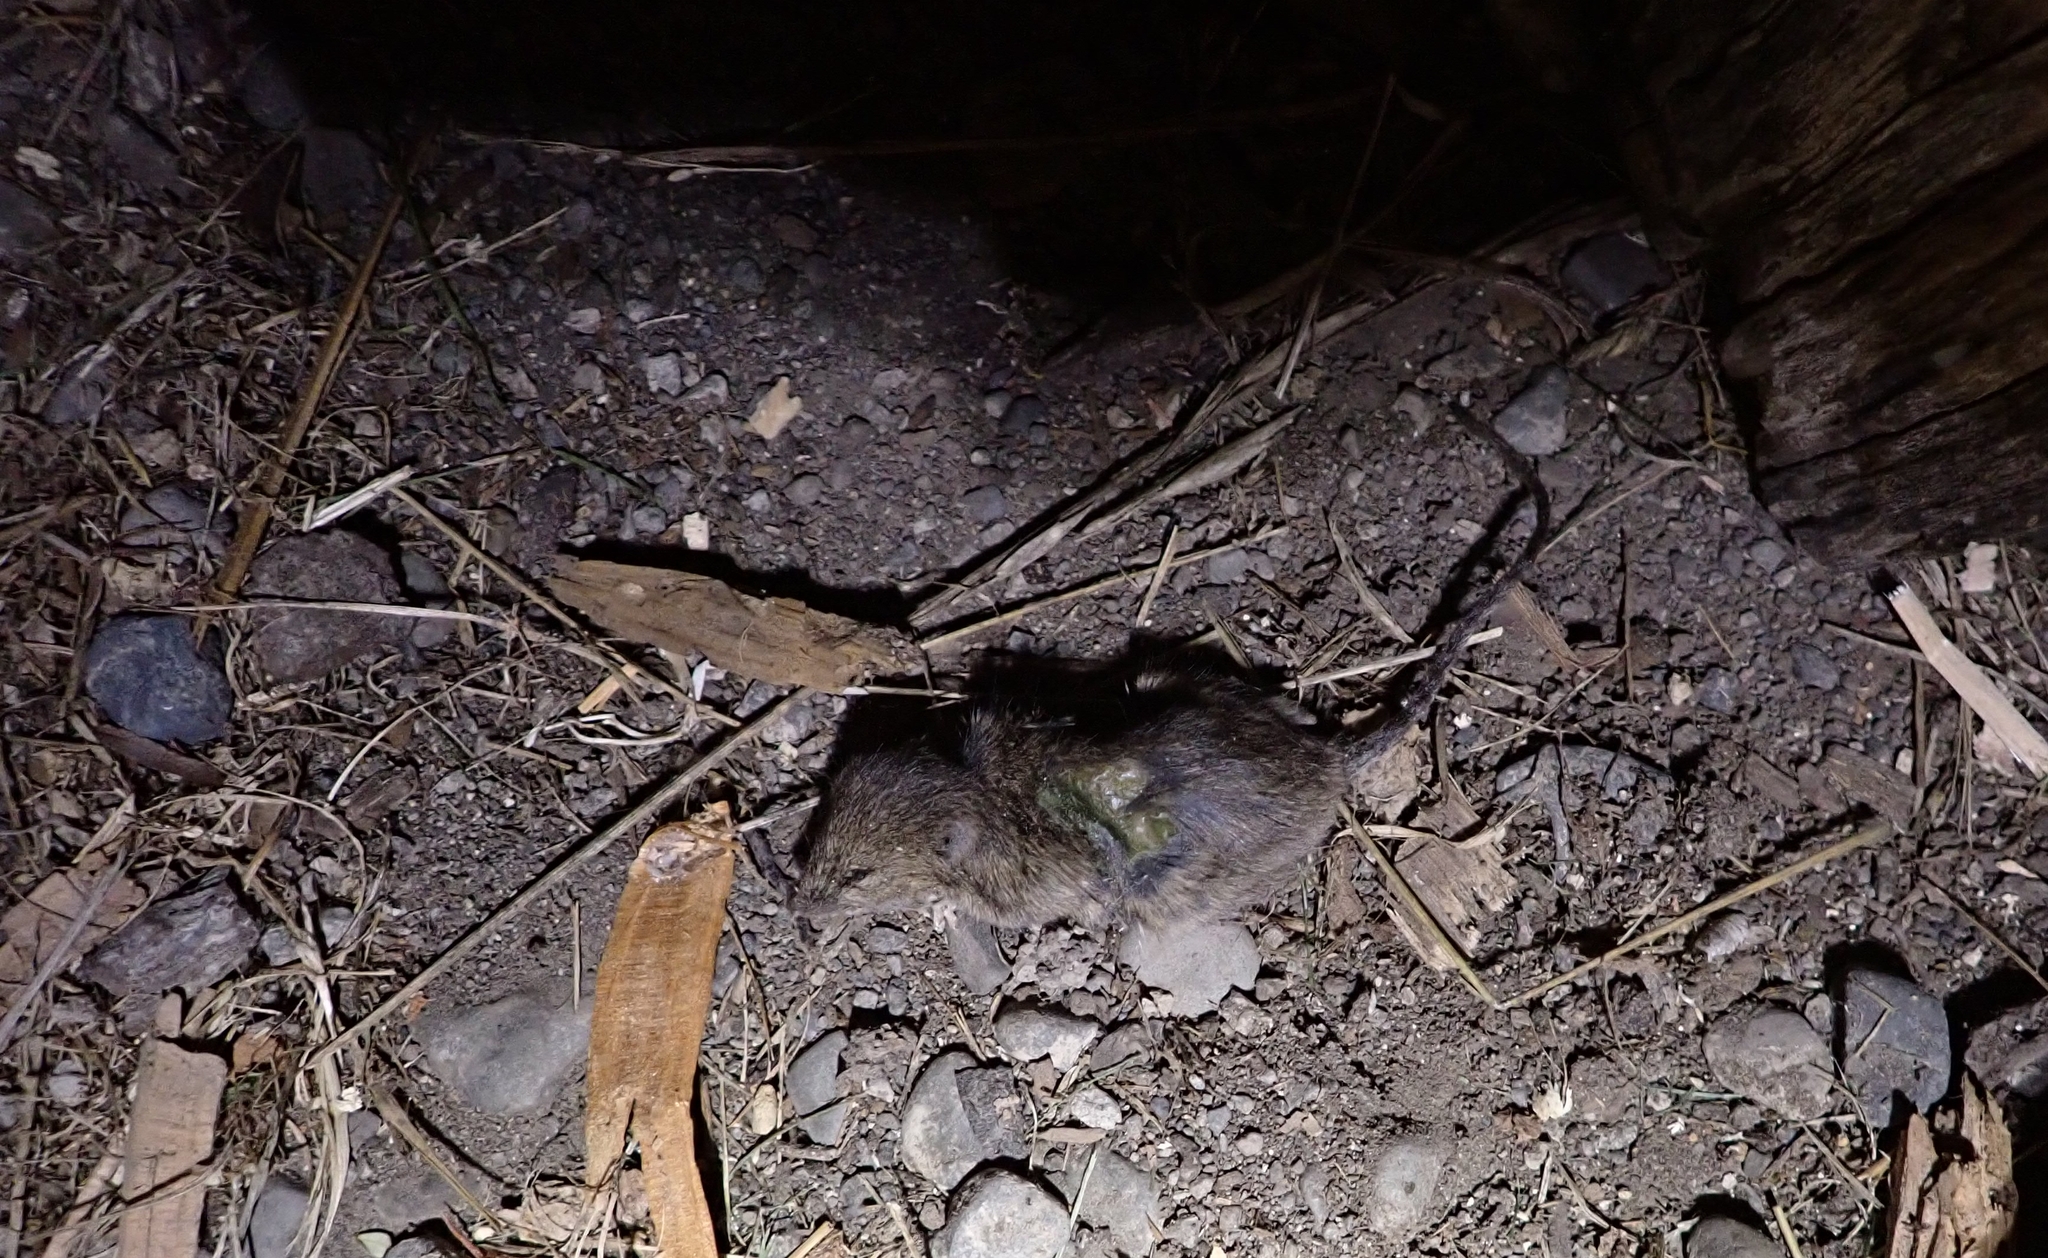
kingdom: Animalia
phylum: Chordata
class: Mammalia
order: Rodentia
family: Muridae
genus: Mus
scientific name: Mus musculus
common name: House mouse
